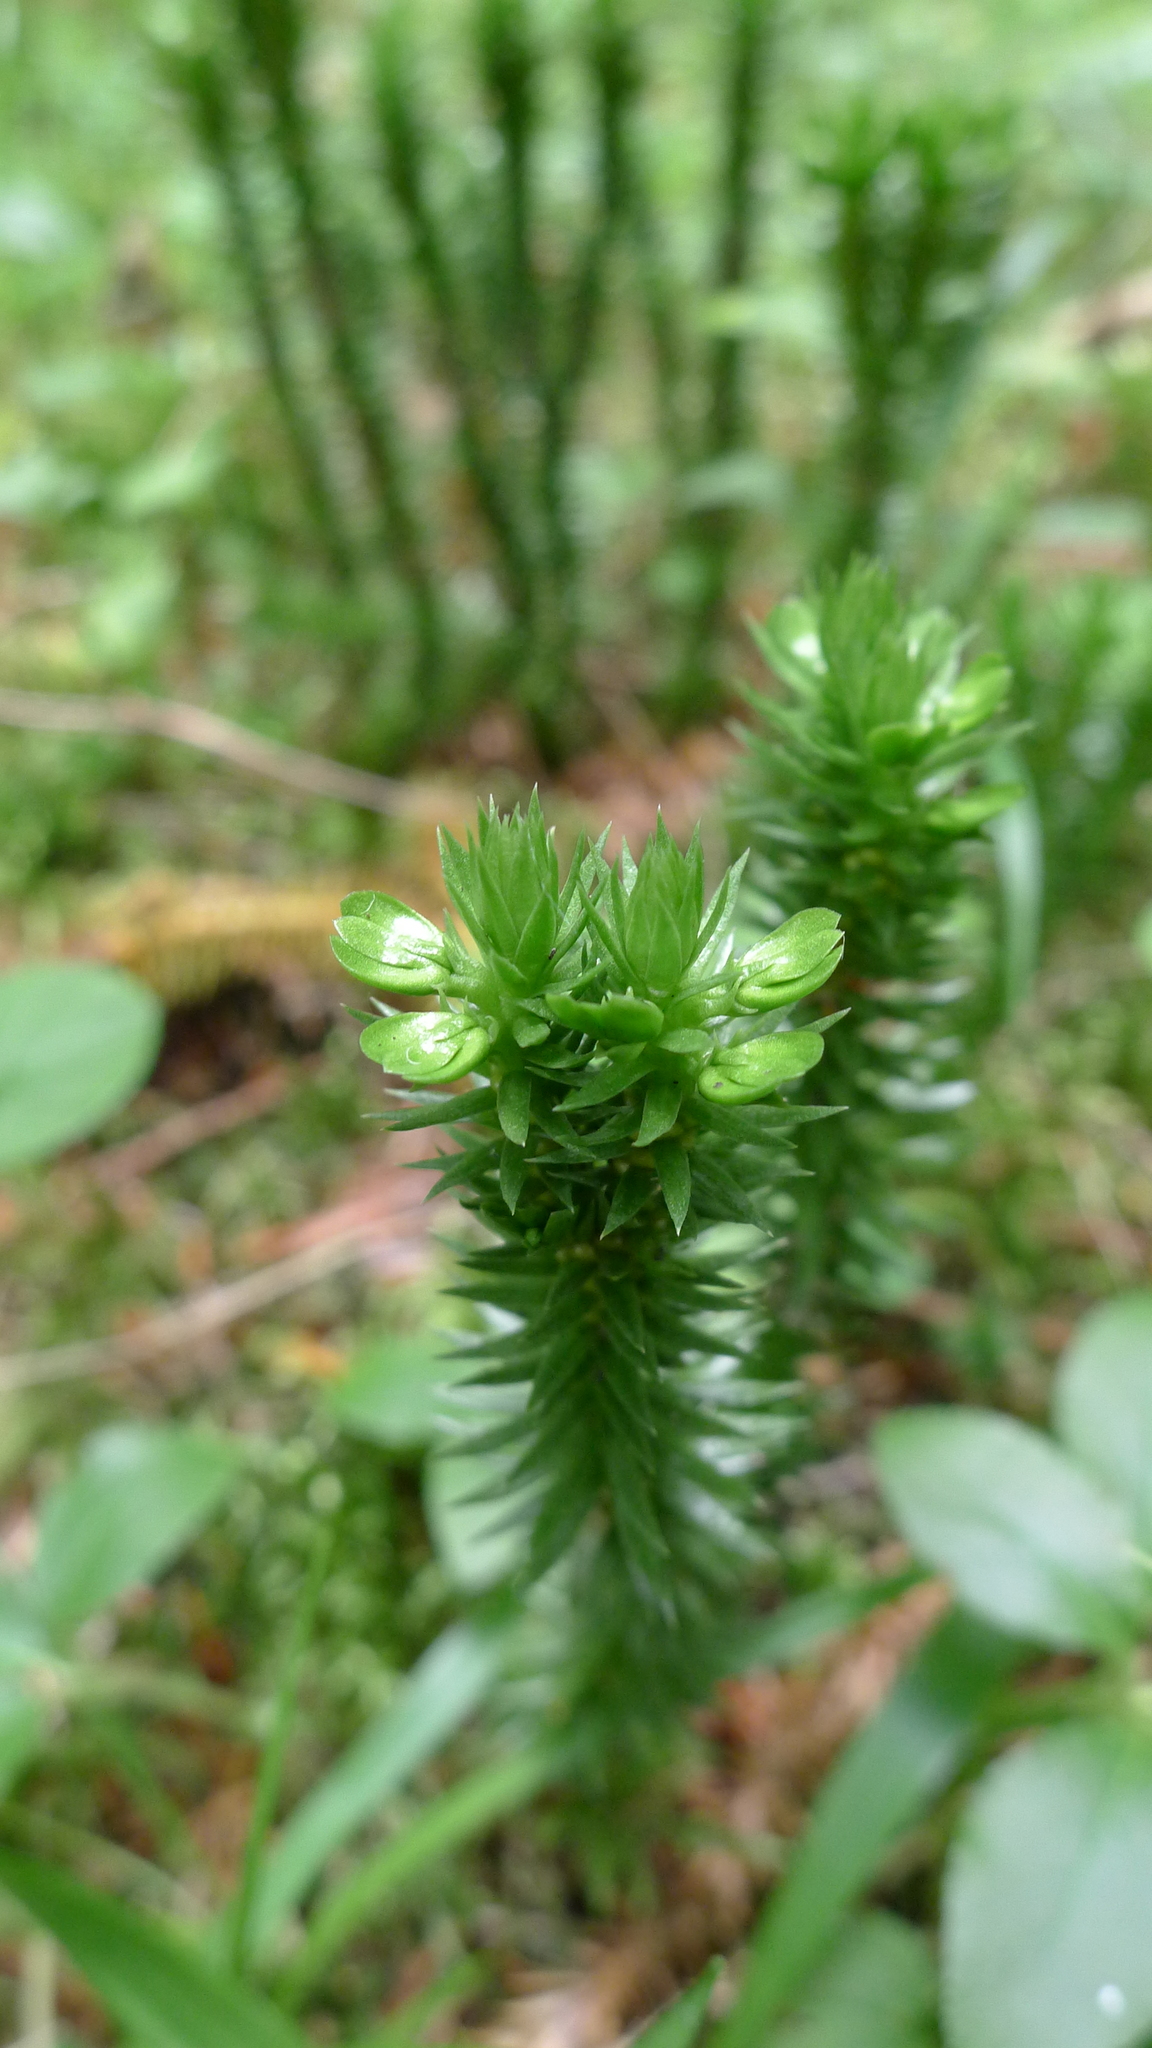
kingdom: Plantae
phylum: Tracheophyta
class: Lycopodiopsida
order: Lycopodiales
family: Lycopodiaceae
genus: Huperzia
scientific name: Huperzia selago
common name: Northern firmoss
